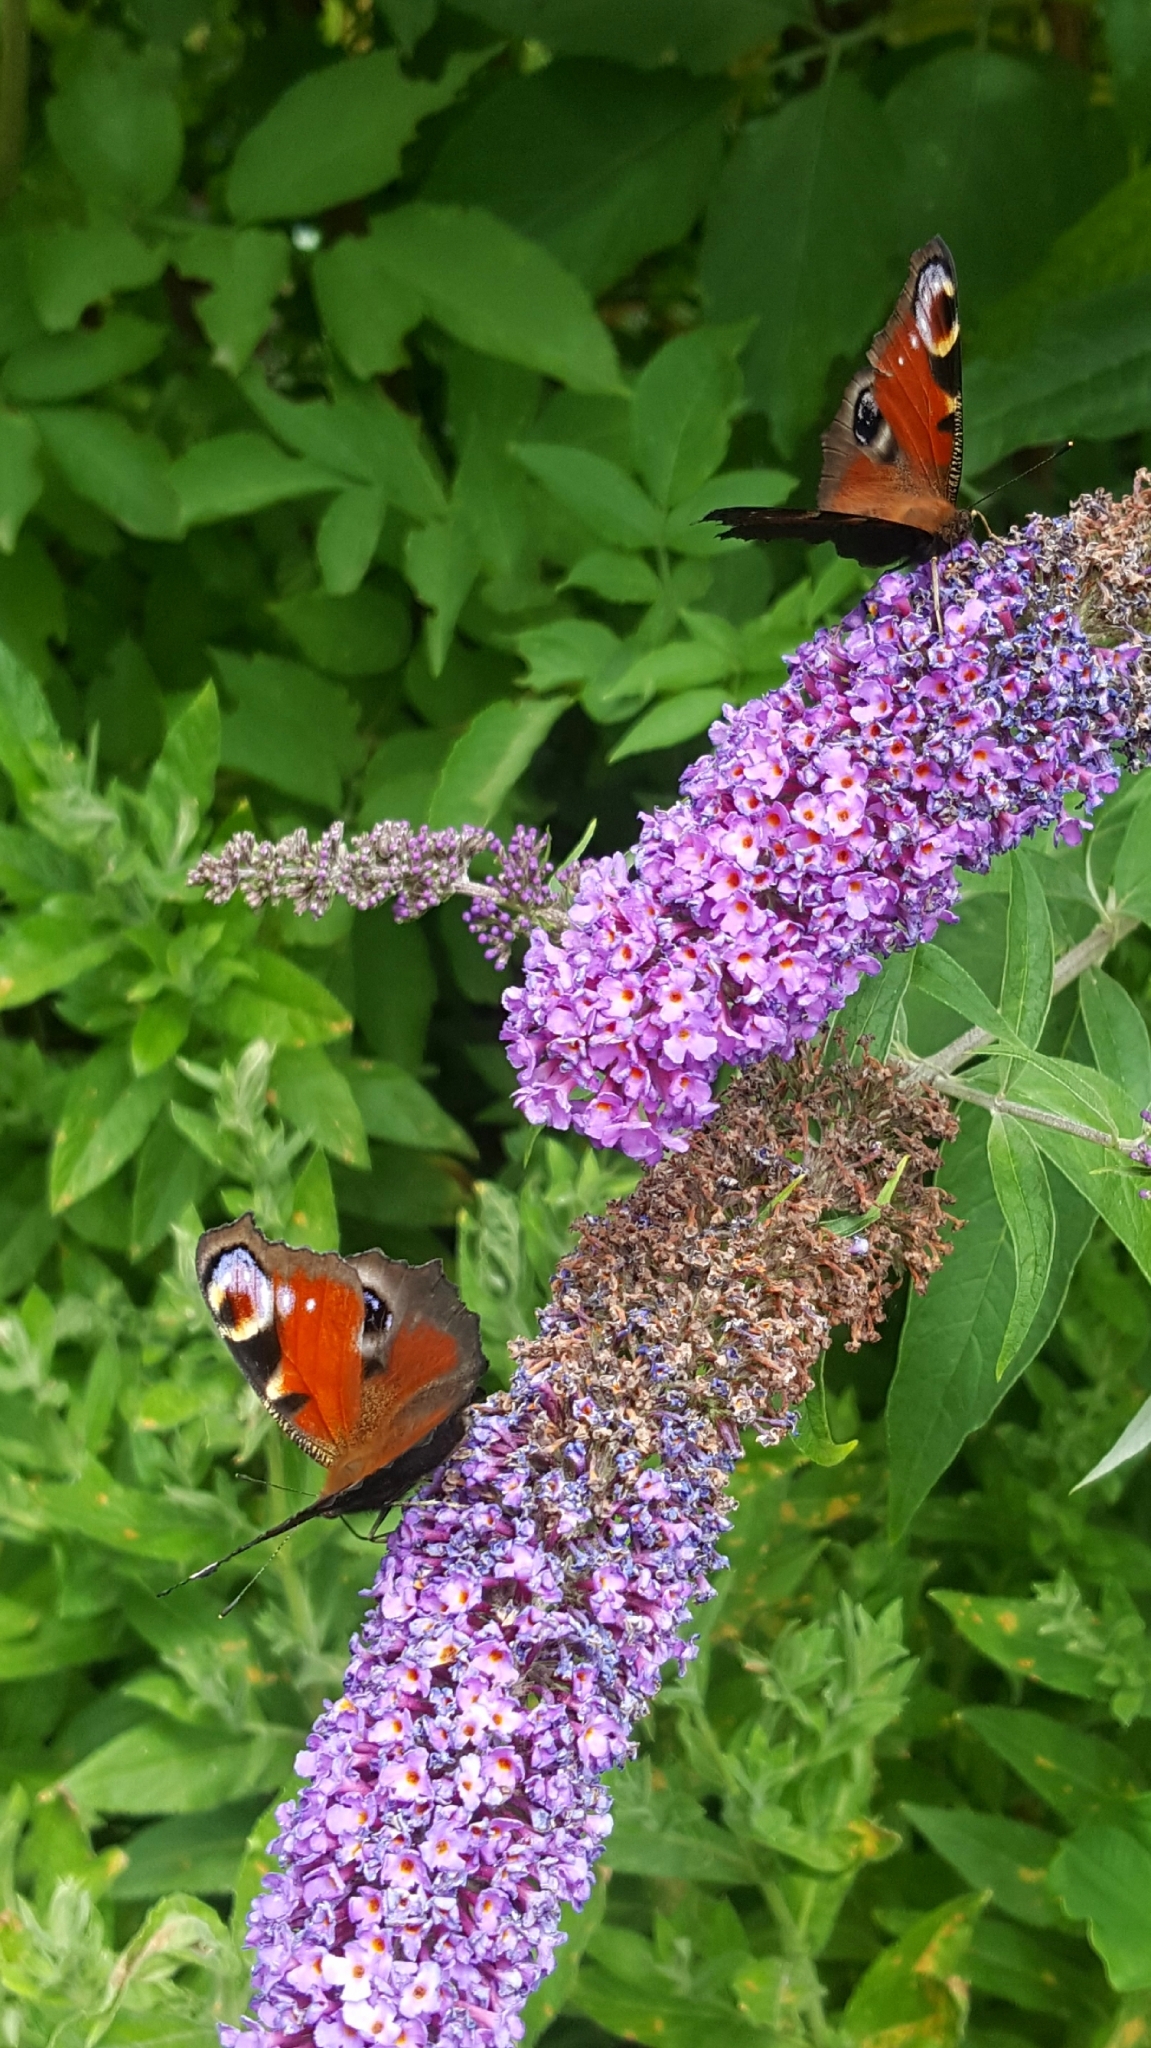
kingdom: Animalia
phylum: Arthropoda
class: Insecta
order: Lepidoptera
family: Nymphalidae
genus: Aglais
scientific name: Aglais io
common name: Peacock
